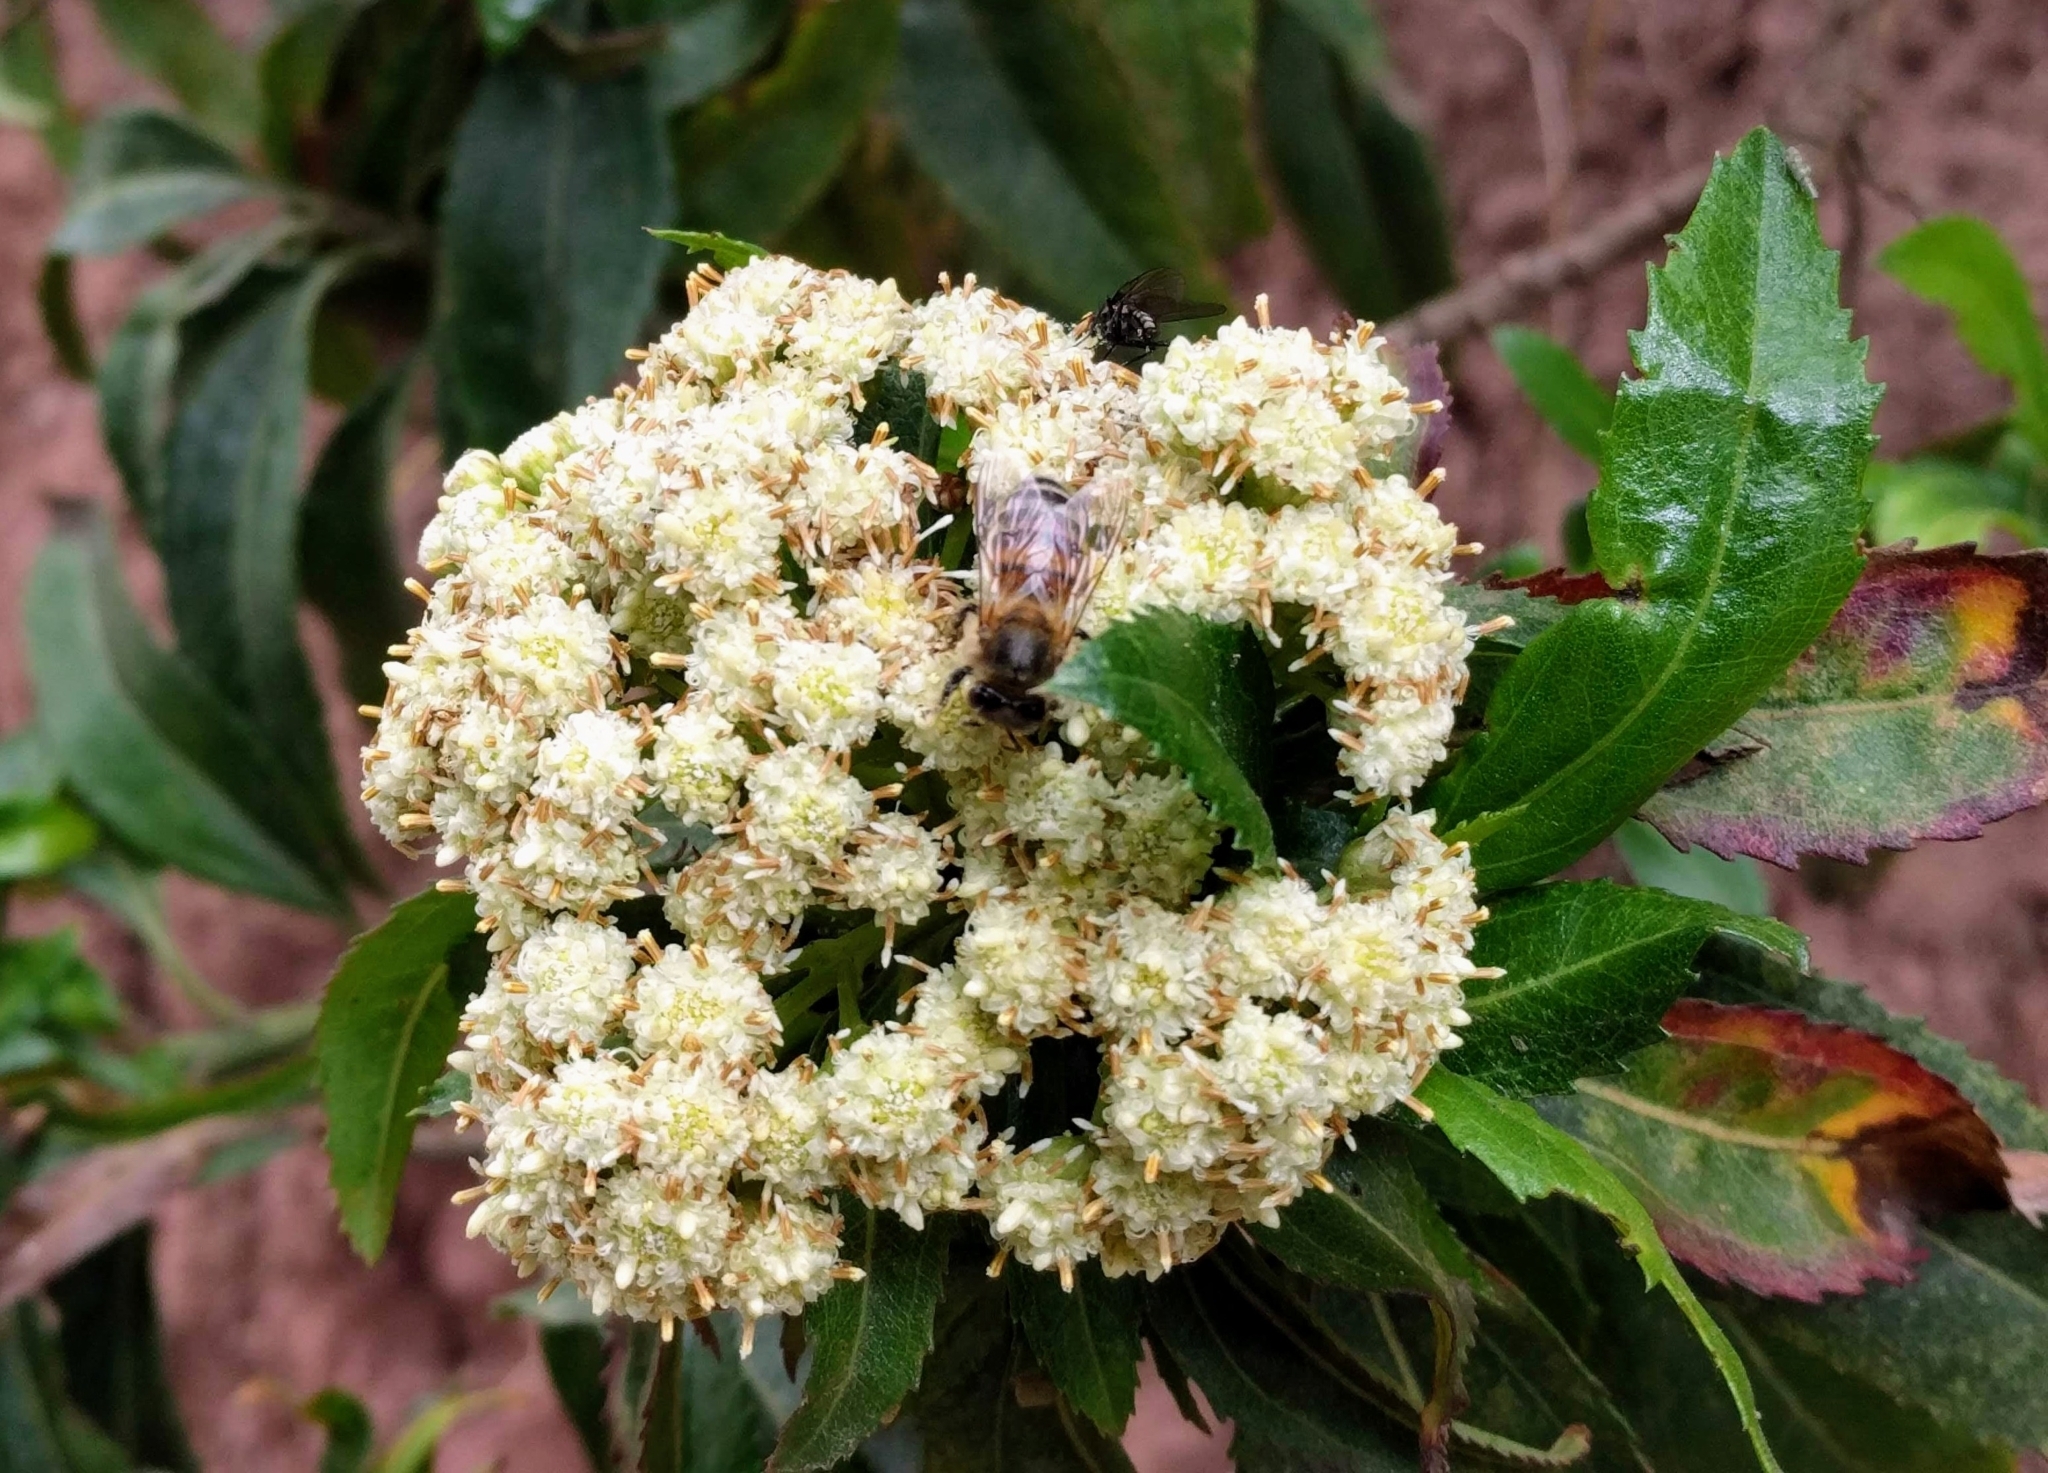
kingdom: Animalia
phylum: Arthropoda
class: Insecta
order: Hymenoptera
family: Apidae
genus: Apis
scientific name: Apis mellifera
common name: Honey bee
